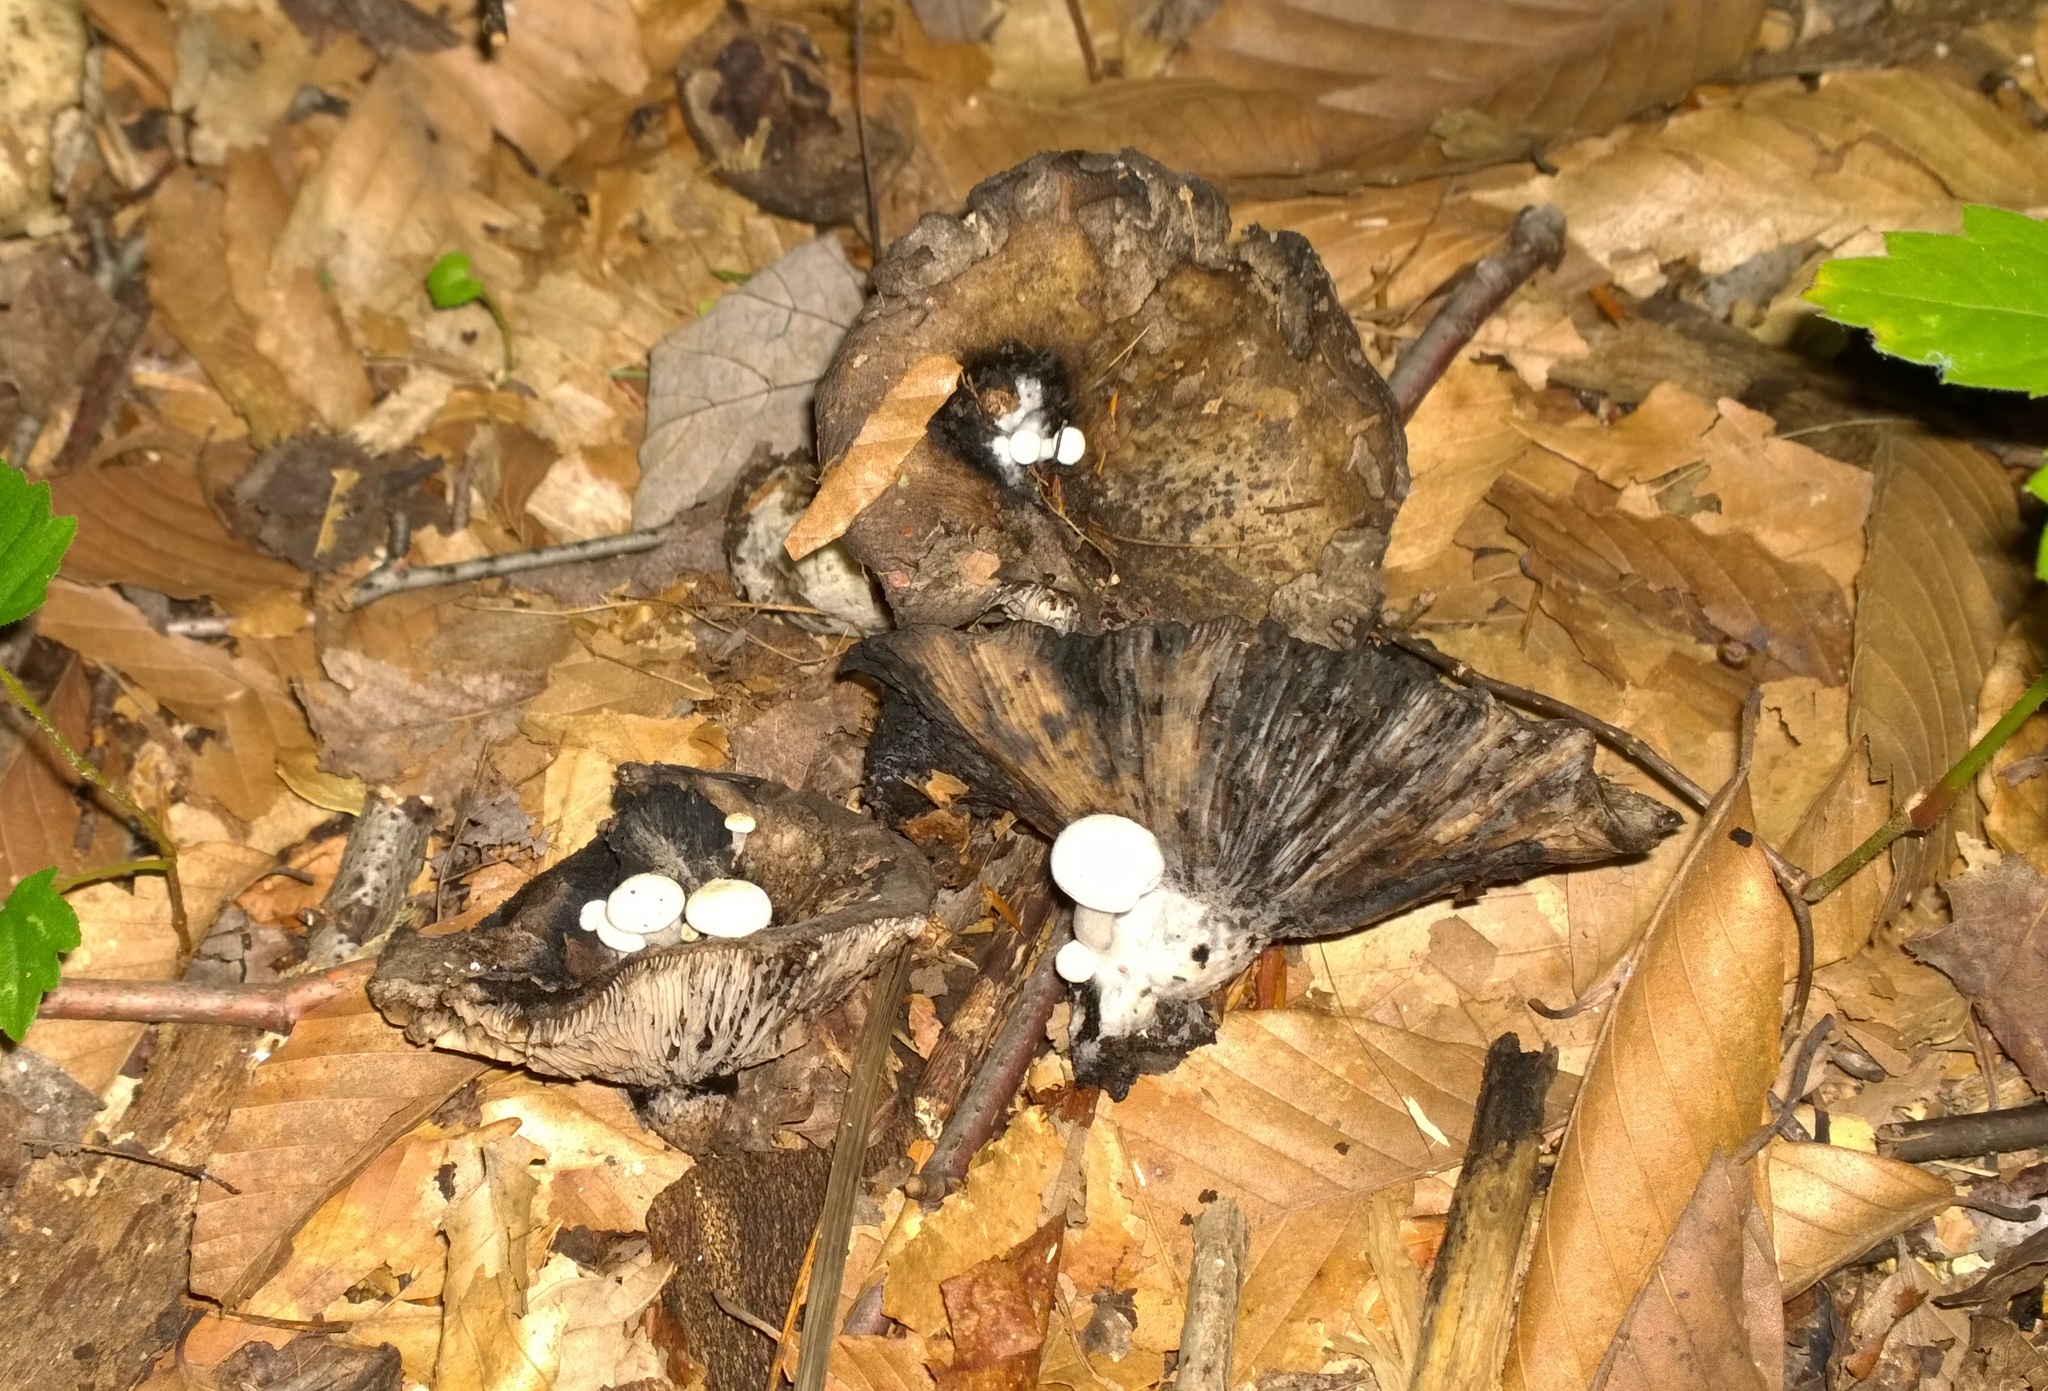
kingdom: Fungi
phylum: Basidiomycota
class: Agaricomycetes
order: Agaricales
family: Lyophyllaceae
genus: Asterophora
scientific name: Asterophora lycoperdoides
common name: Pick-a-back toadstool
